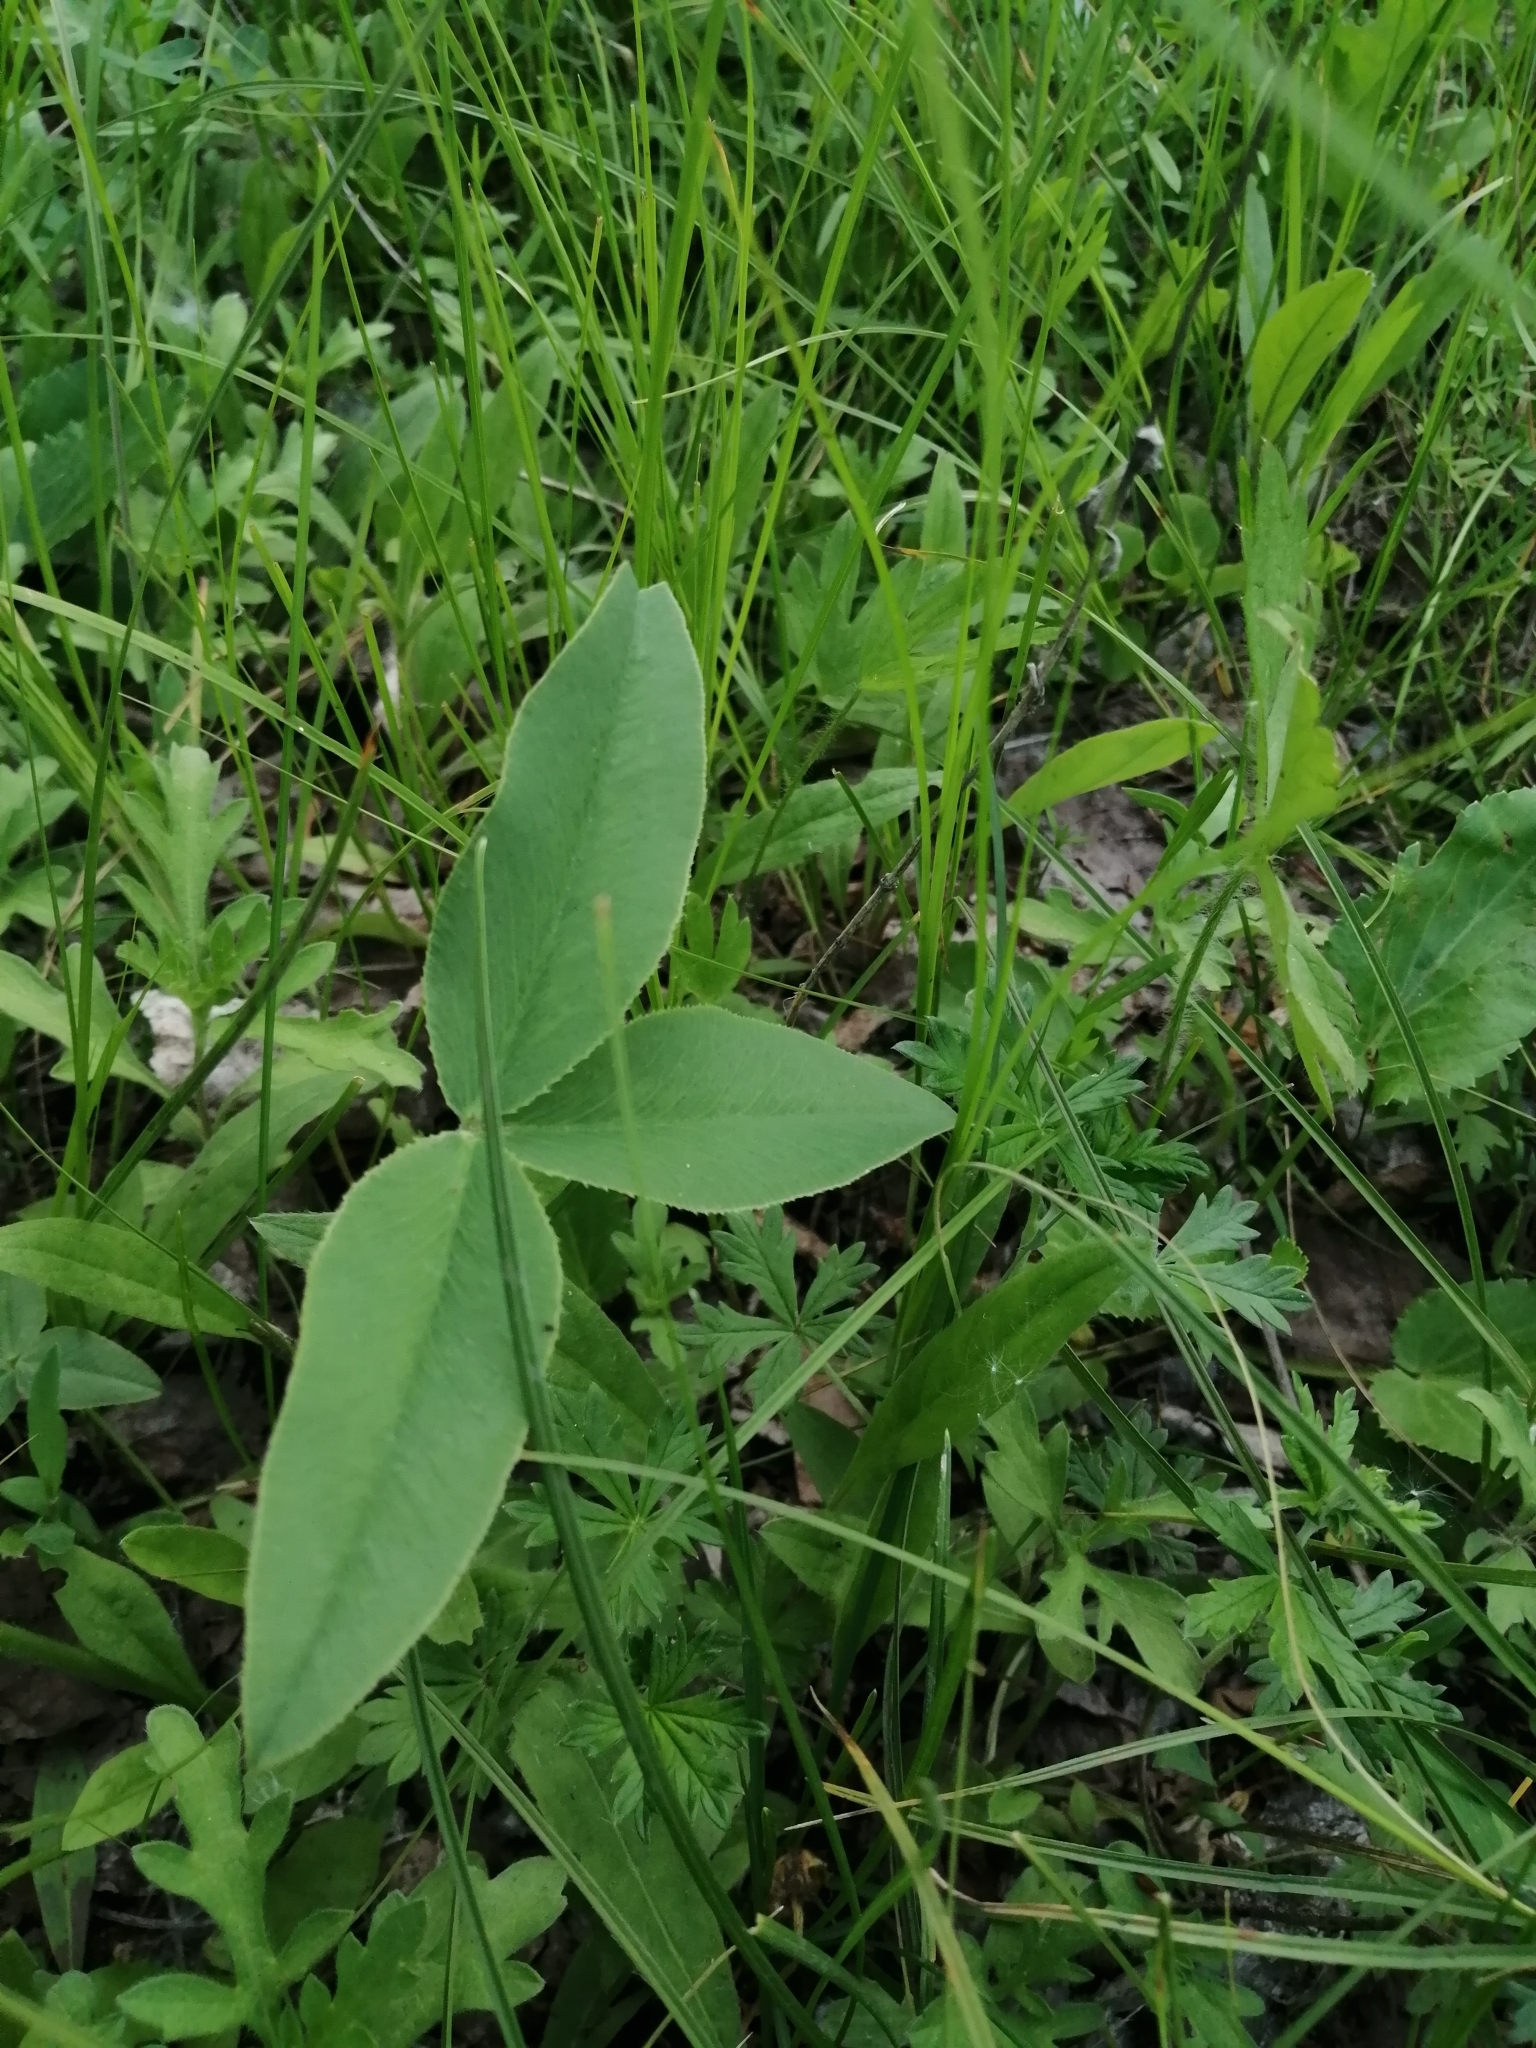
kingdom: Plantae
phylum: Tracheophyta
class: Magnoliopsida
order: Fabales
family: Fabaceae
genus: Trifolium
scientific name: Trifolium montanum
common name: Mountain clover
